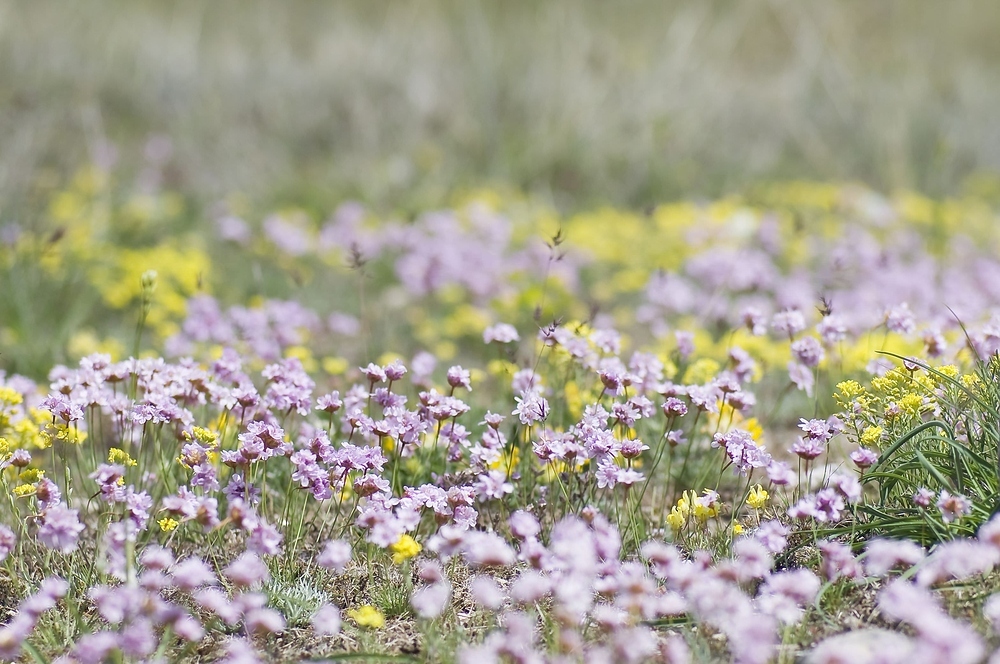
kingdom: Plantae
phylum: Tracheophyta
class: Magnoliopsida
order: Caryophyllales
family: Plumbaginaceae
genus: Armeria
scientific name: Armeria girardii
